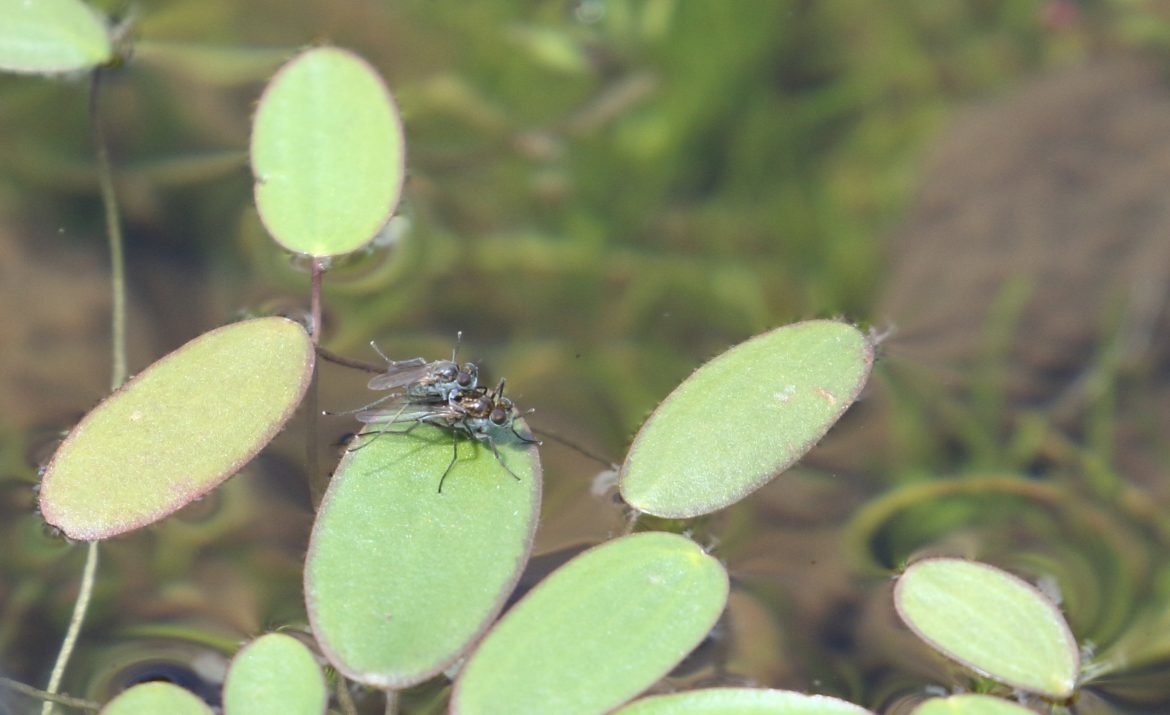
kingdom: Plantae
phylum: Tracheophyta
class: Magnoliopsida
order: Lamiales
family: Scrophulariaceae
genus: Limosella
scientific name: Limosella inflata
